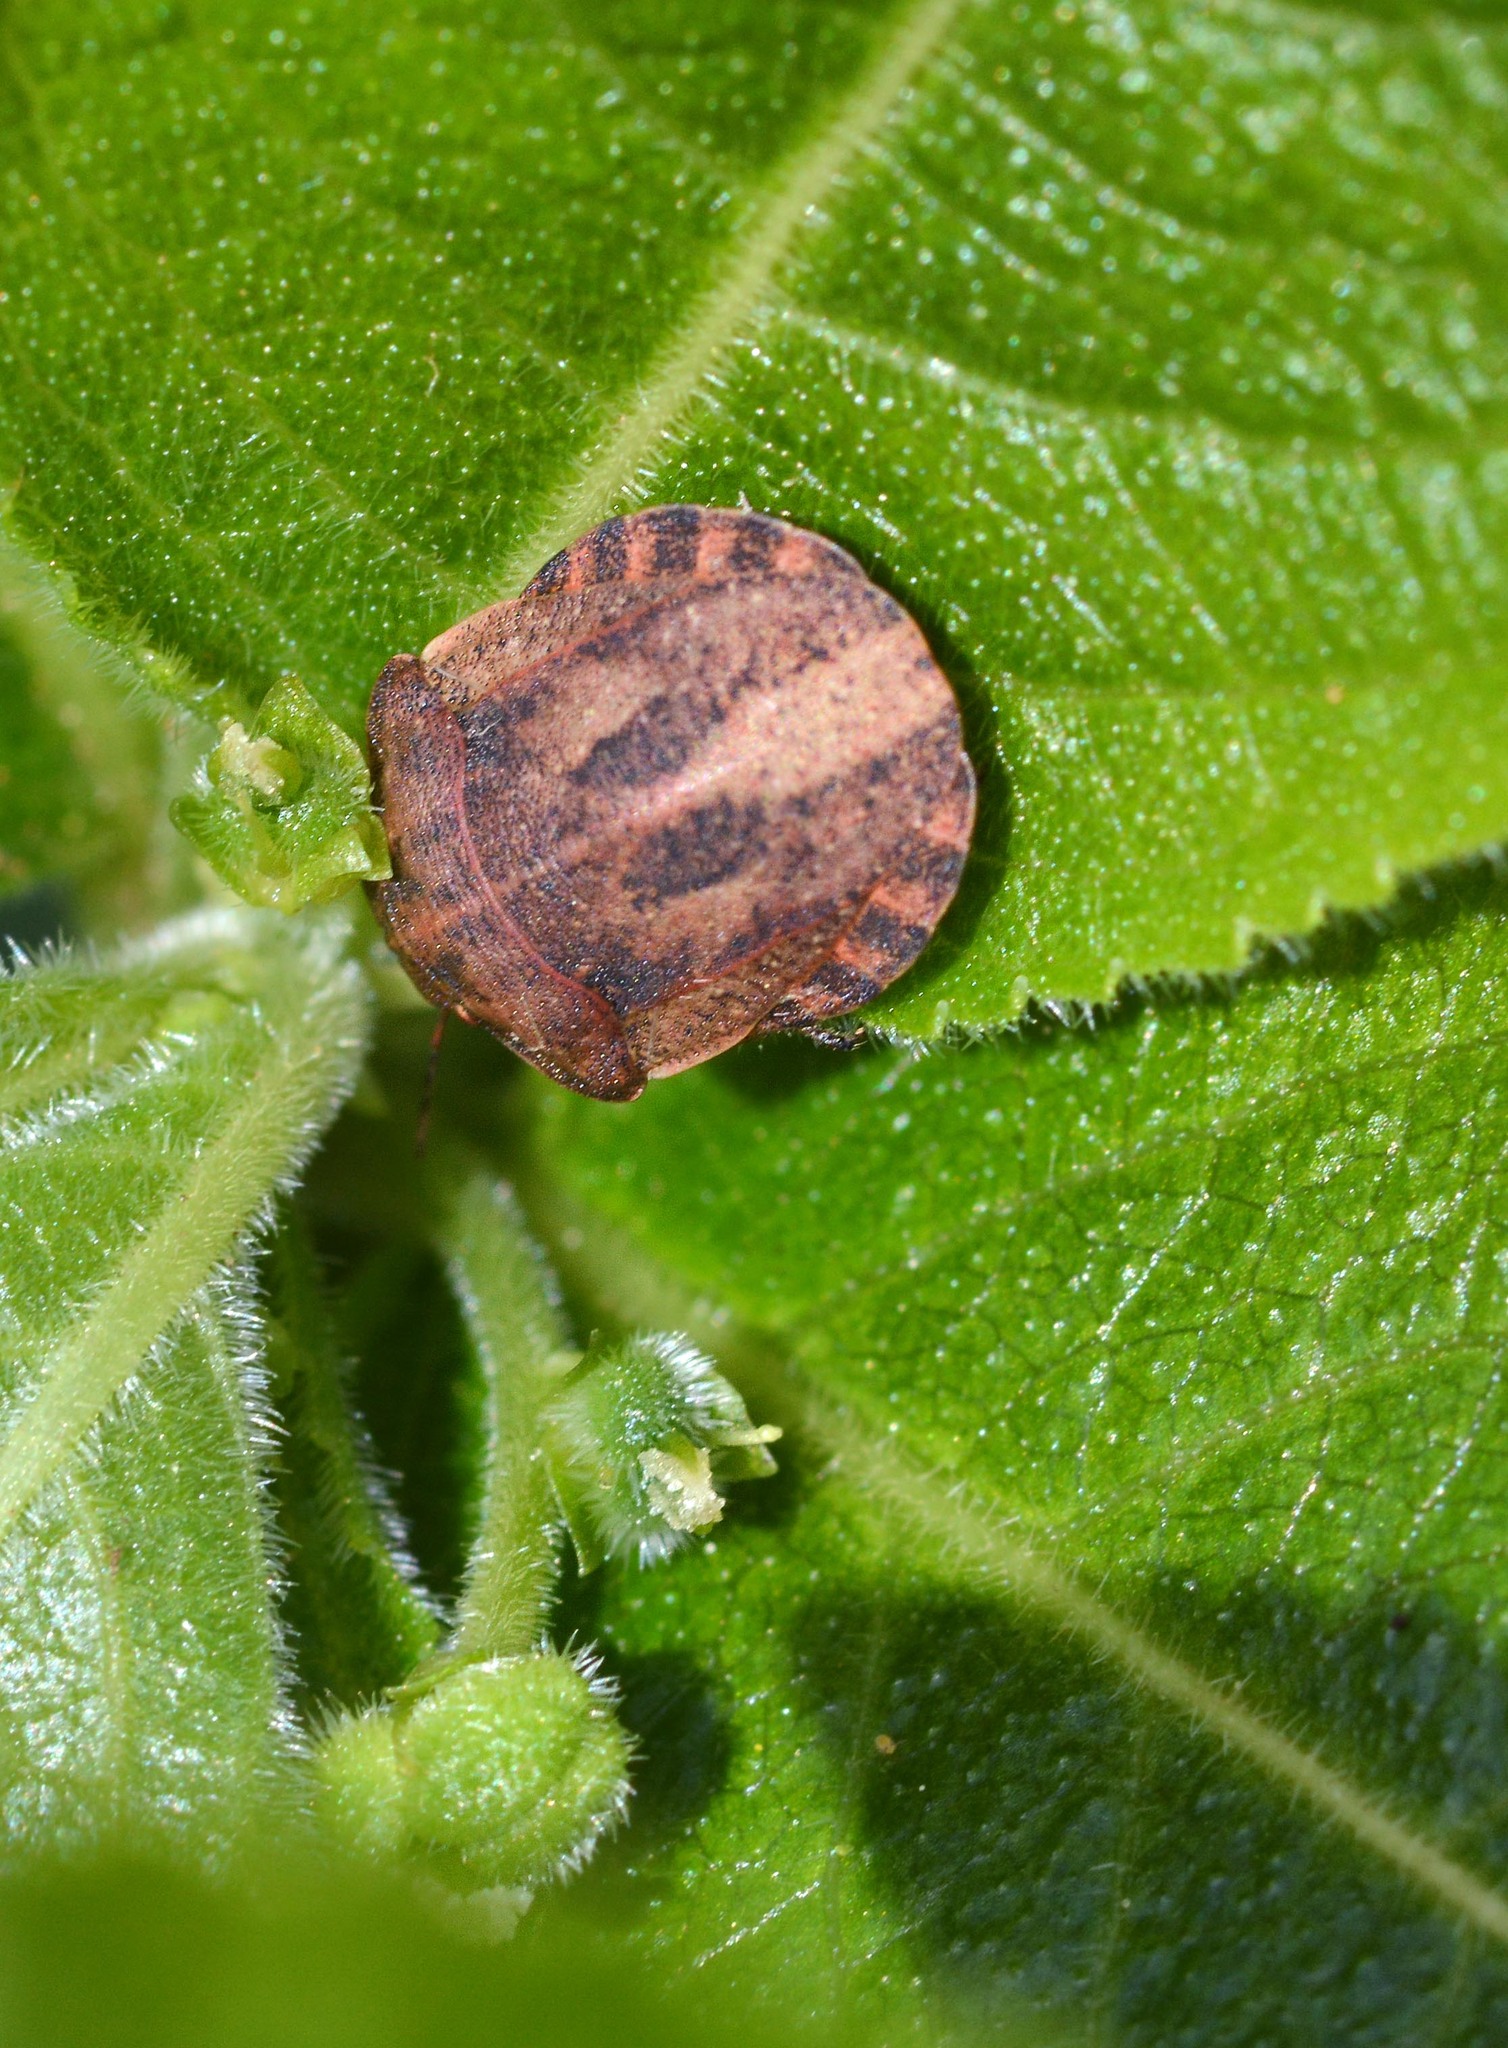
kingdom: Animalia
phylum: Arthropoda
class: Insecta
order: Hemiptera
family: Scutelleridae
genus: Eurygaster
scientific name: Eurygaster testudinaria
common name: Tortoise bug
